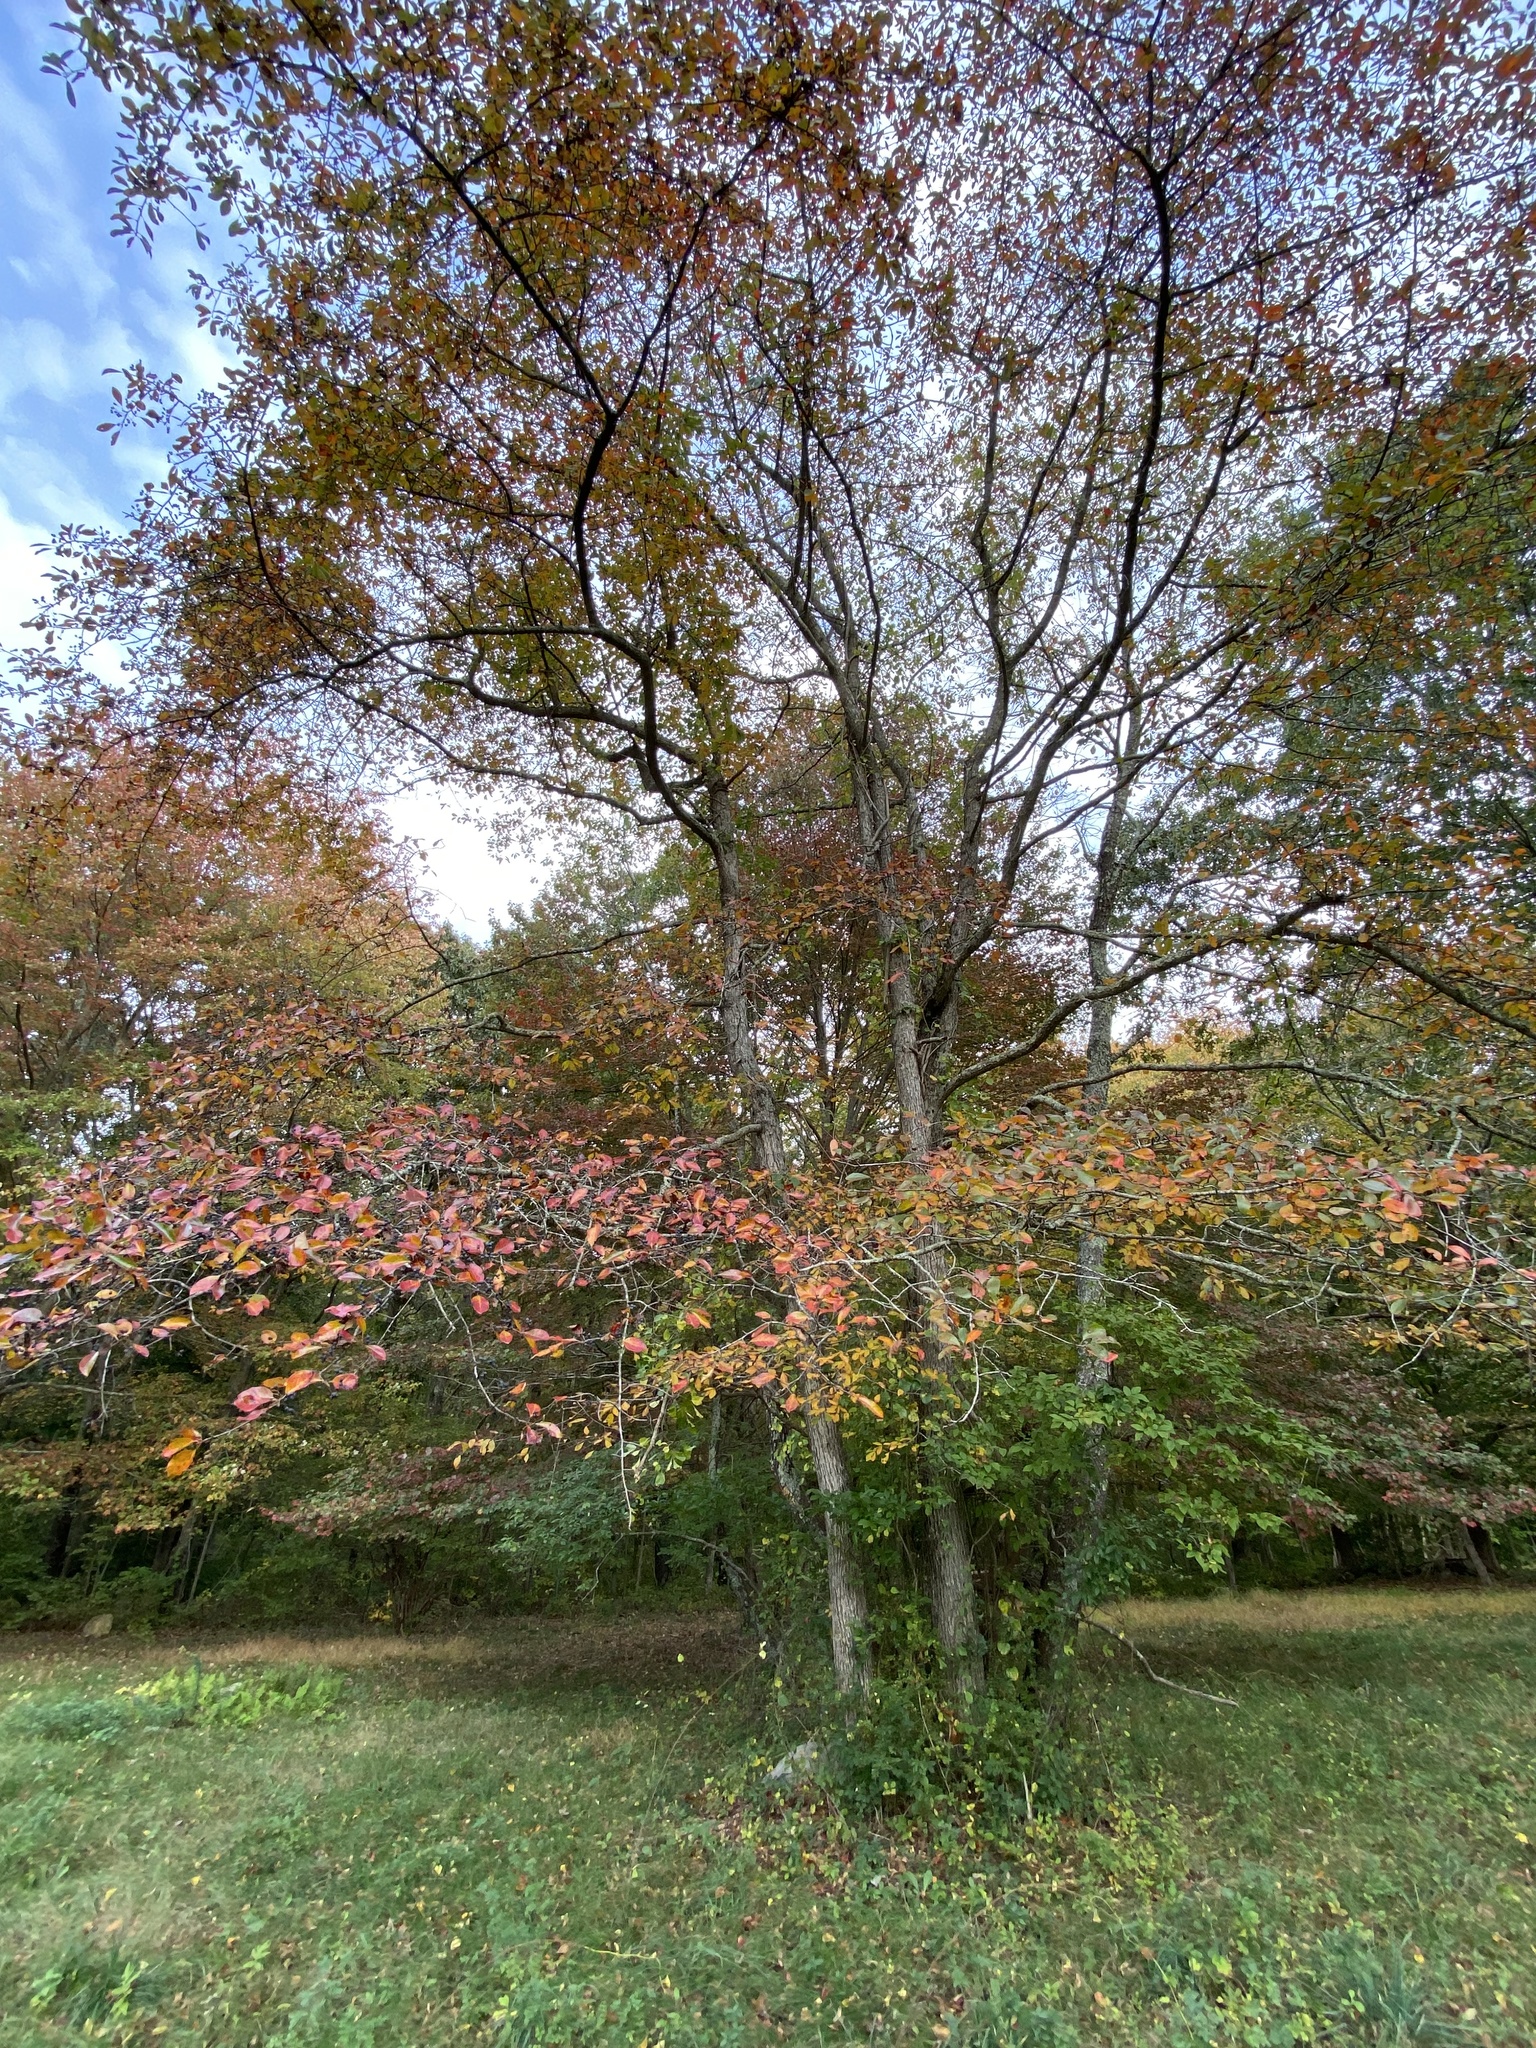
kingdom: Plantae
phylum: Tracheophyta
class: Magnoliopsida
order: Cornales
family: Nyssaceae
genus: Nyssa
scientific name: Nyssa sylvatica
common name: Black tupelo
